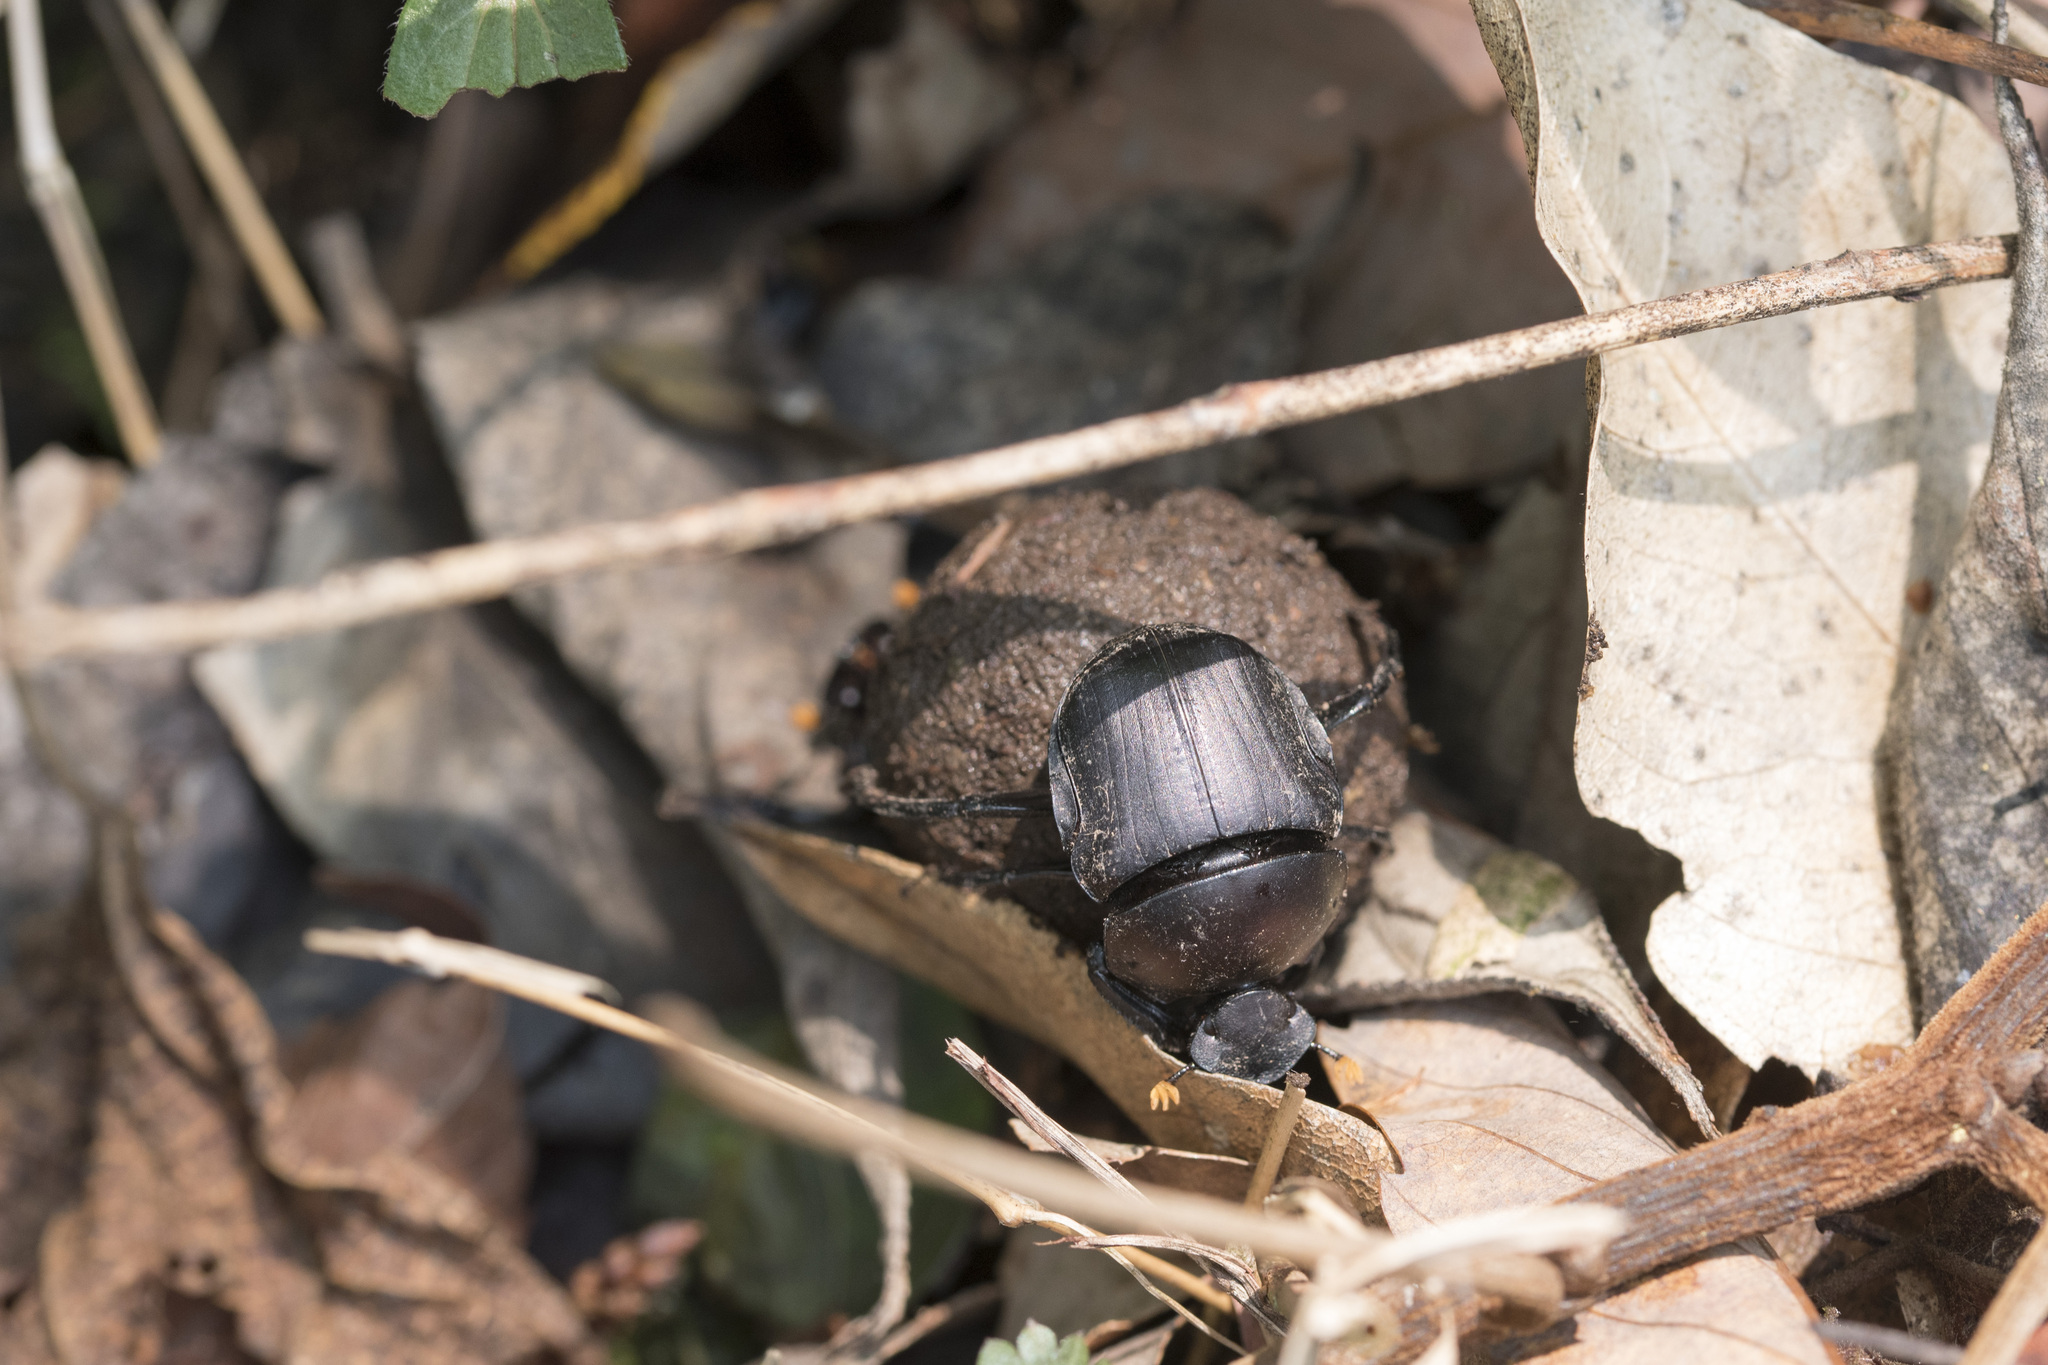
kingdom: Animalia
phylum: Arthropoda
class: Insecta
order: Coleoptera
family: Scarabaeidae
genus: Paragymnopleurus
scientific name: Paragymnopleurus ambiguus
